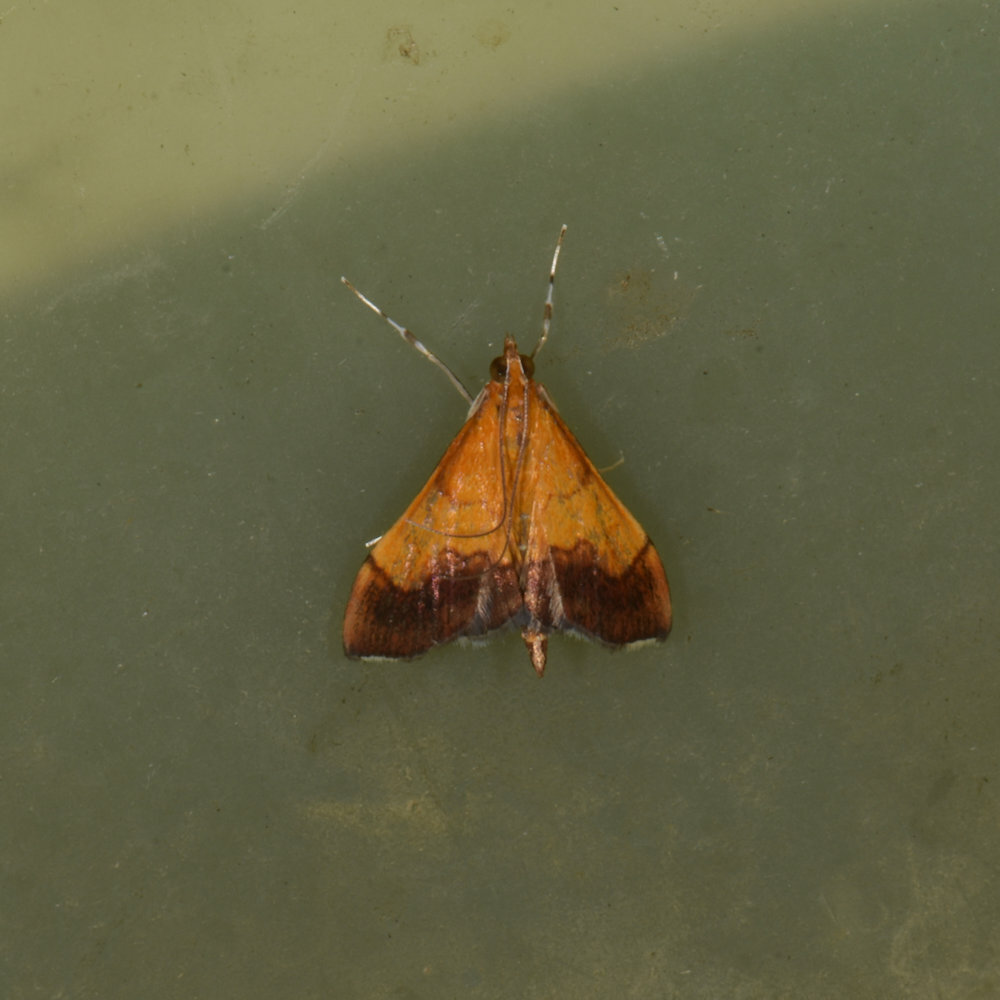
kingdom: Animalia
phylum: Arthropoda
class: Insecta
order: Lepidoptera
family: Crambidae
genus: Pyrausta
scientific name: Pyrausta bicoloralis
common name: Bicolored pyrausta moth
